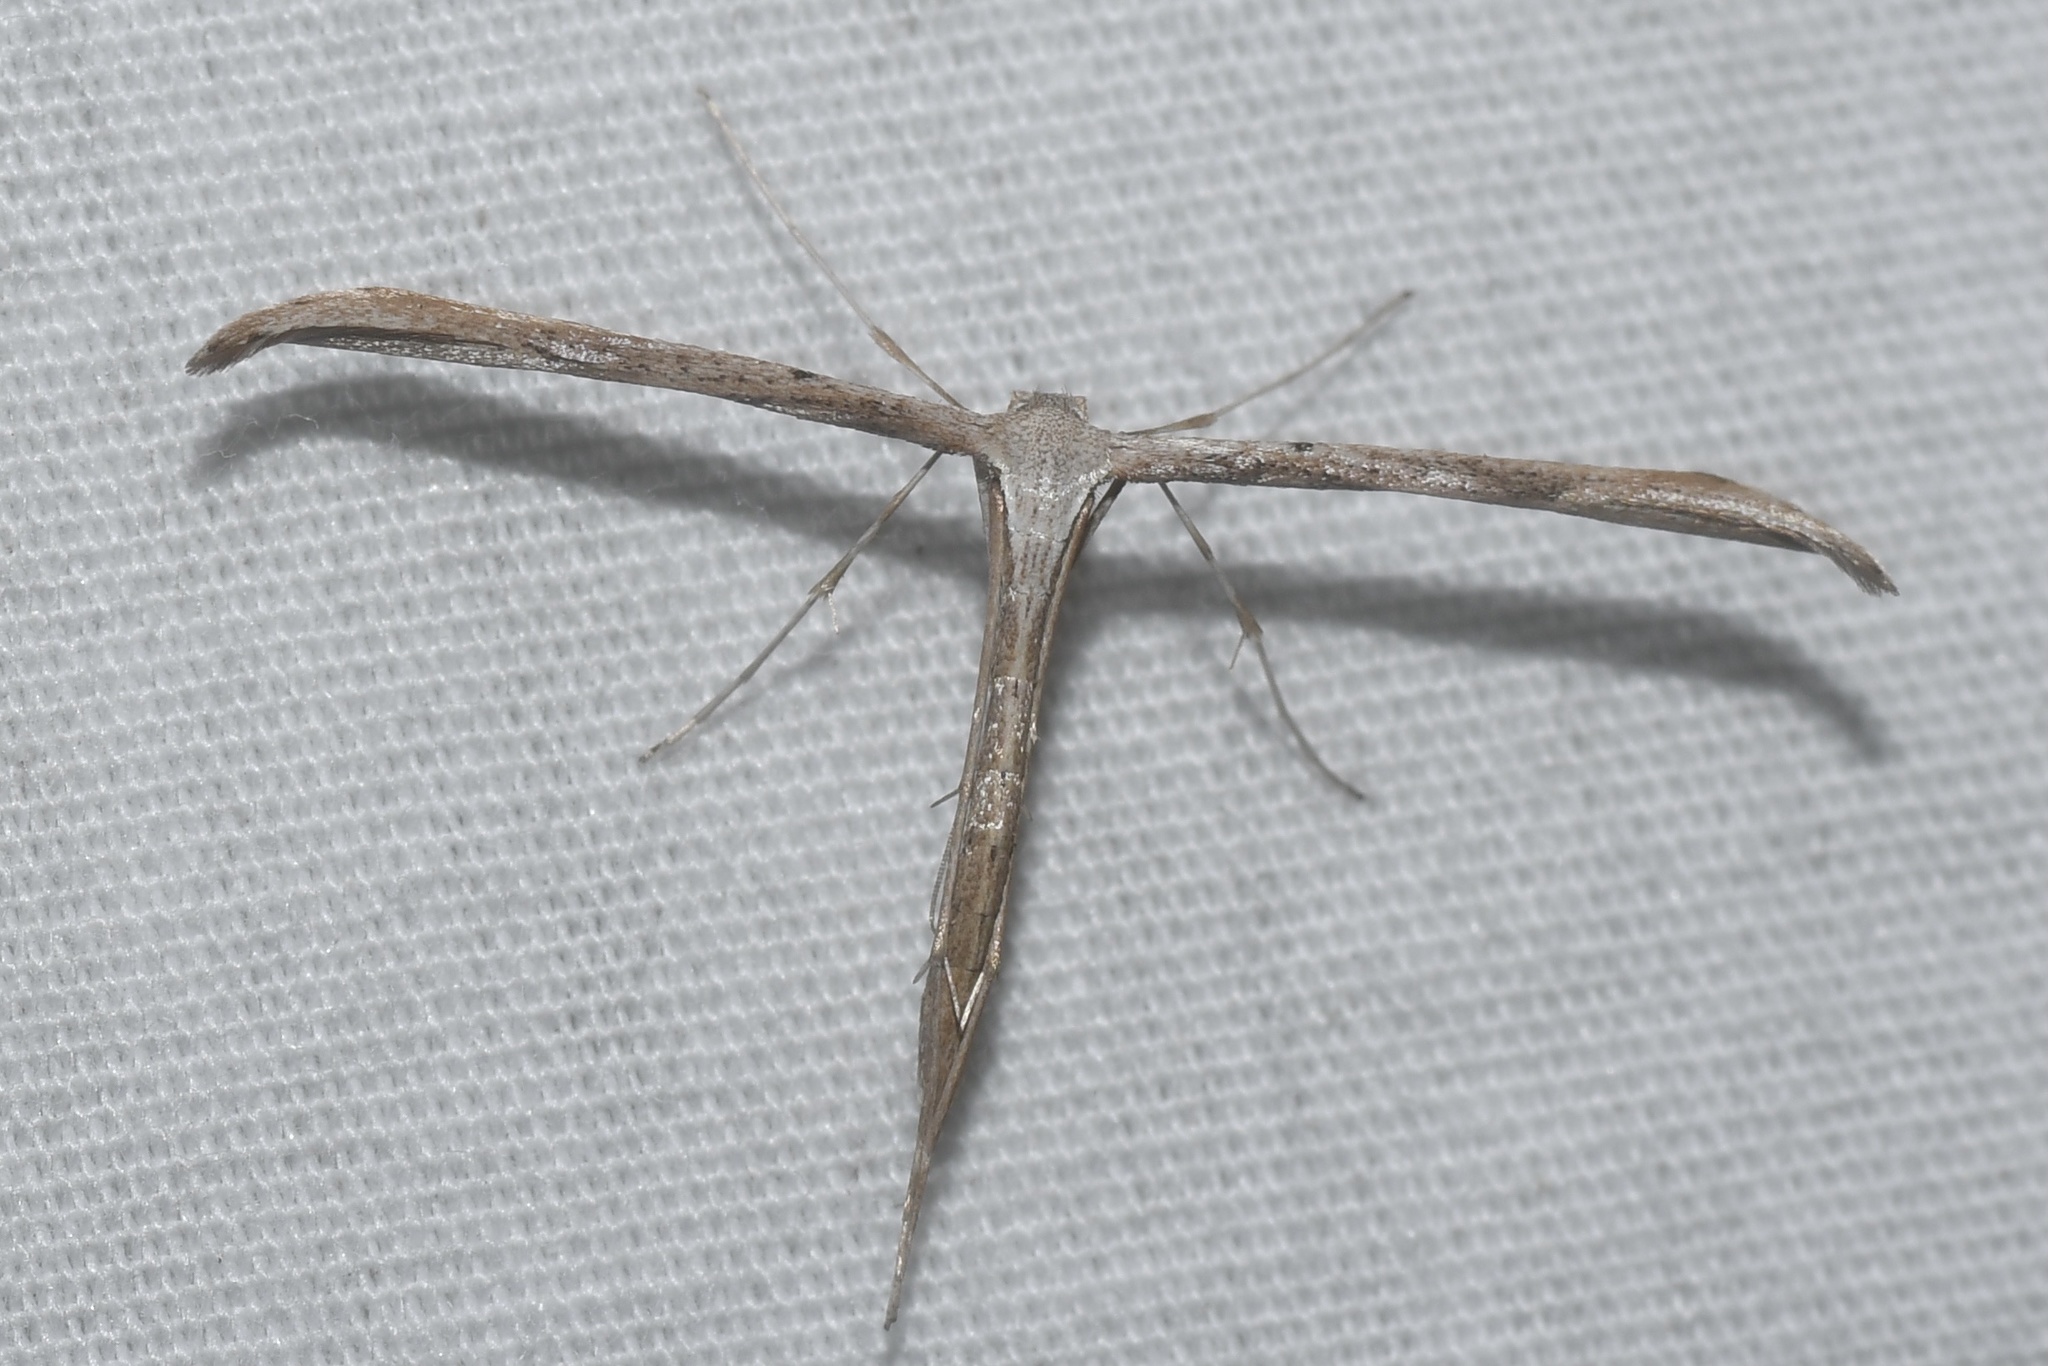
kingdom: Animalia
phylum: Arthropoda
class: Insecta
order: Lepidoptera
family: Pterophoridae
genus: Emmelina
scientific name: Emmelina monodactyla
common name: Common plume
